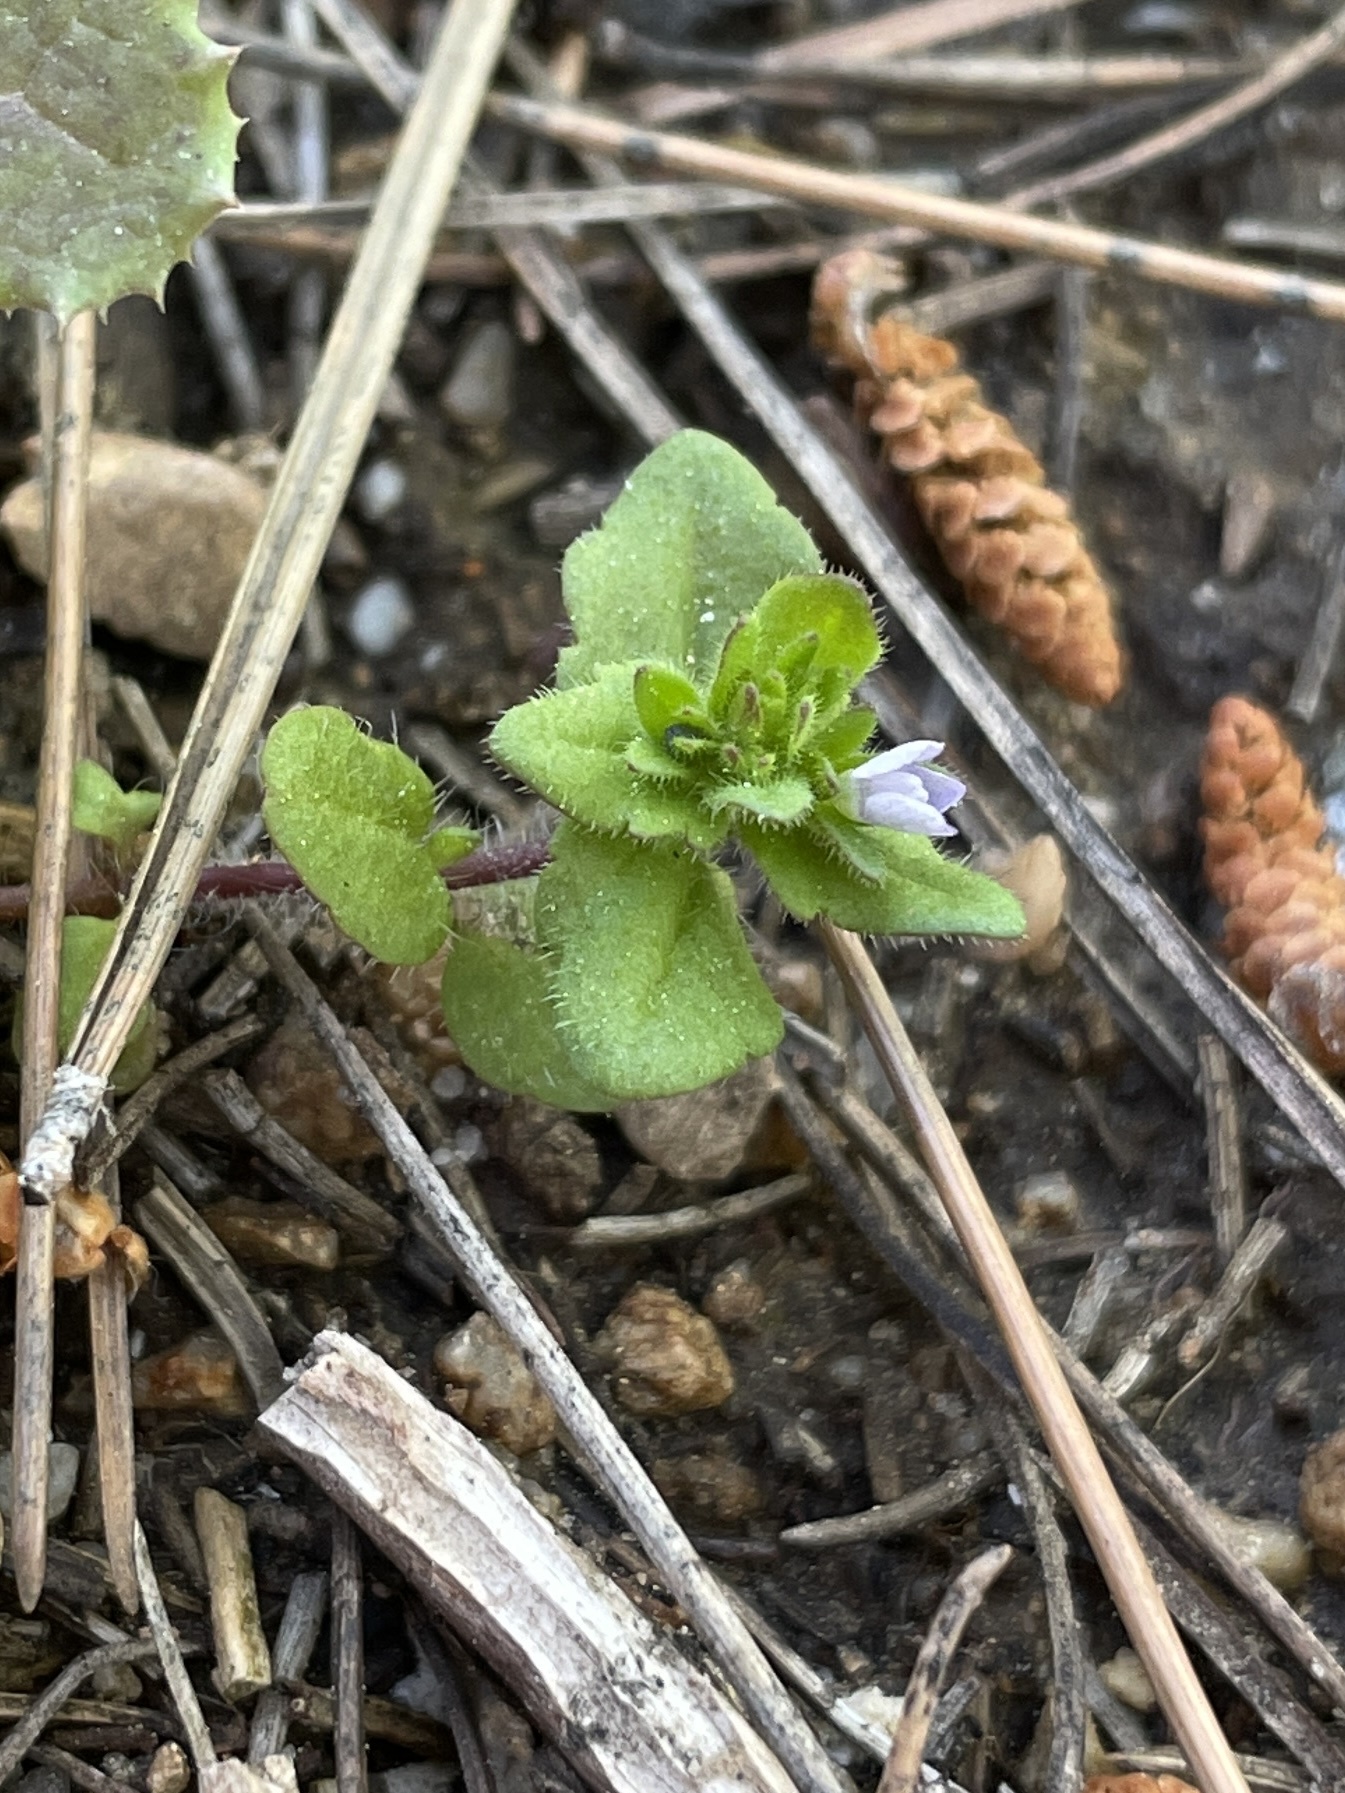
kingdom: Plantae
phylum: Tracheophyta
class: Magnoliopsida
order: Lamiales
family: Plantaginaceae
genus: Veronica
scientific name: Veronica arvensis
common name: Corn speedwell
